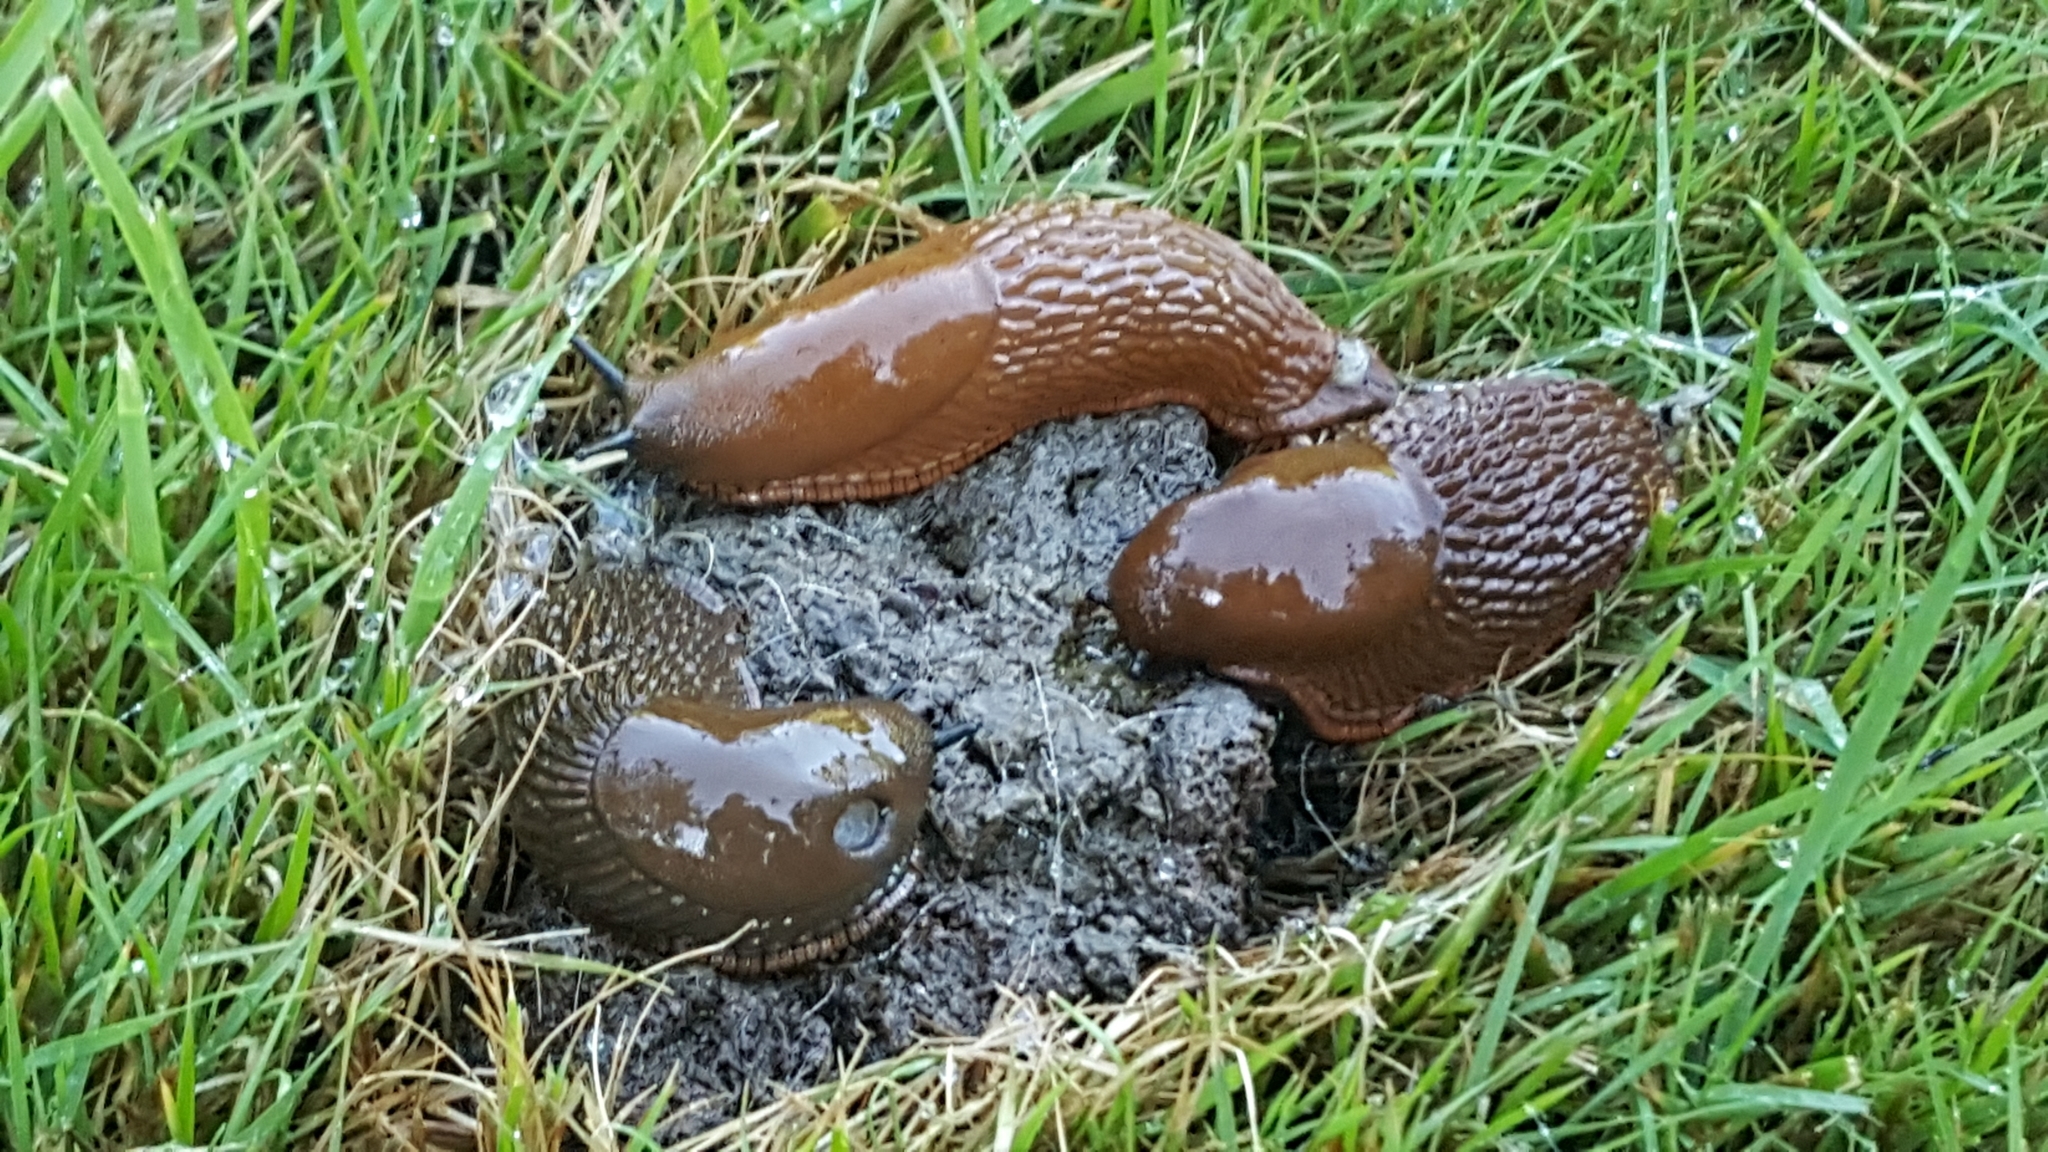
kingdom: Animalia
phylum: Mollusca
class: Gastropoda
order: Stylommatophora
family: Arionidae
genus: Arion
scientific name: Arion
